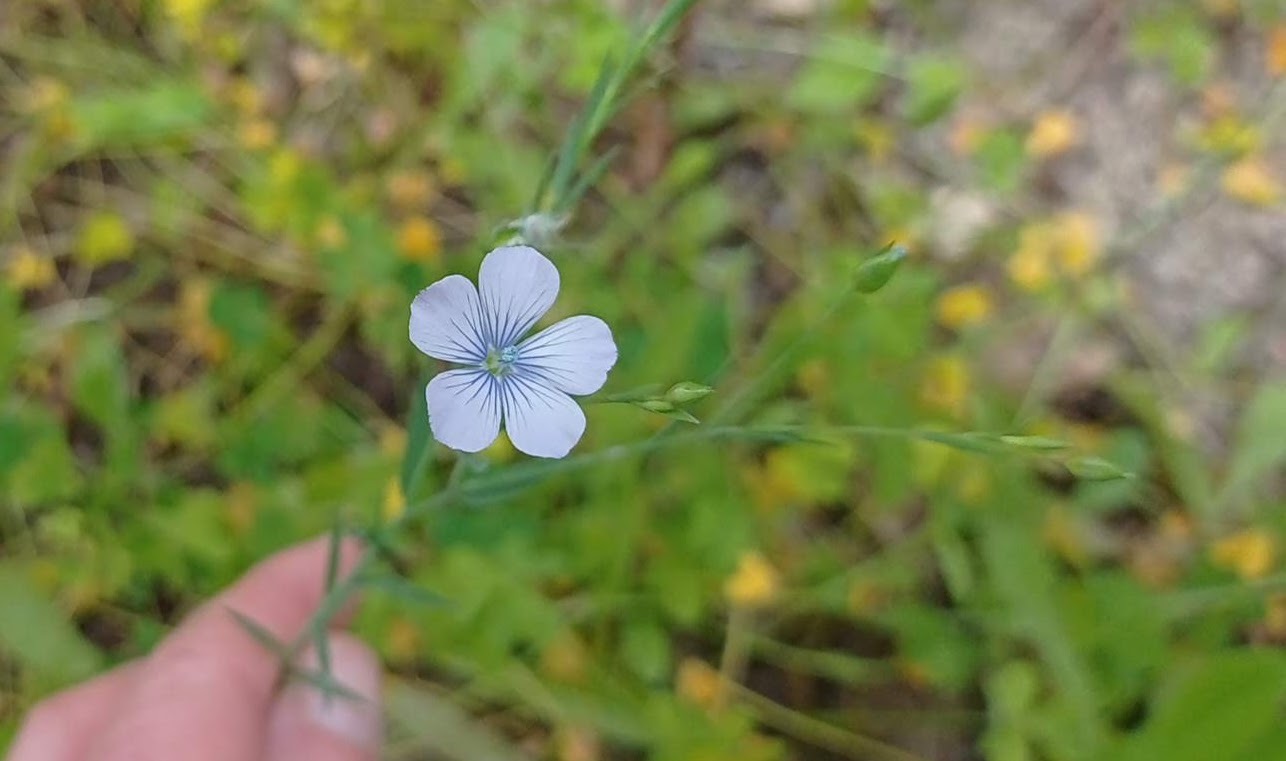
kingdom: Plantae
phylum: Tracheophyta
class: Magnoliopsida
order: Malpighiales
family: Linaceae
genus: Linum
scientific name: Linum bienne
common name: Pale flax
